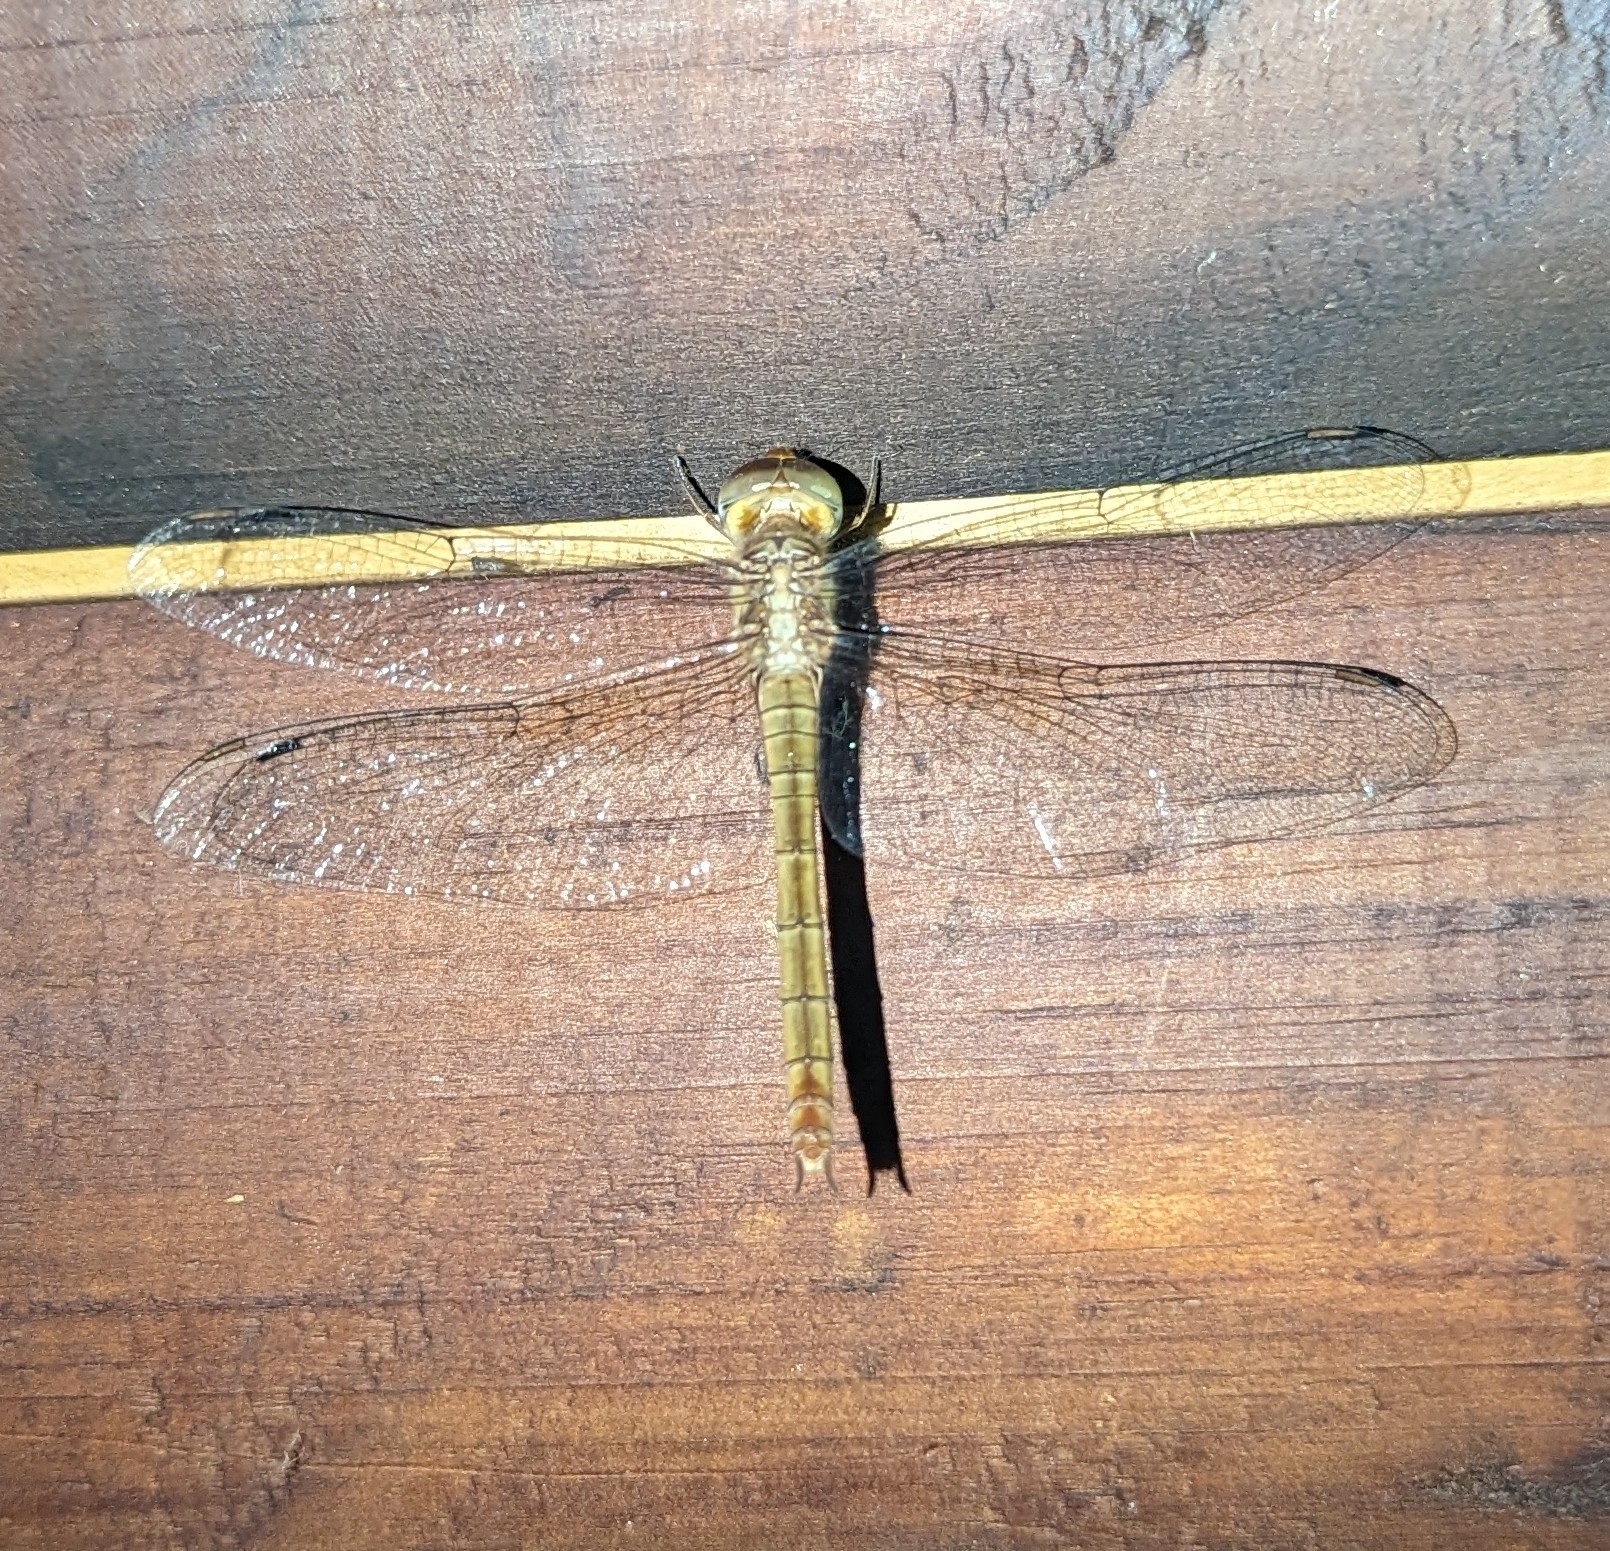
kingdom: Animalia
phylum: Arthropoda
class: Insecta
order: Odonata
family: Libellulidae
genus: Tholymis
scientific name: Tholymis tillarga
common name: Coral-tailed cloud wing
